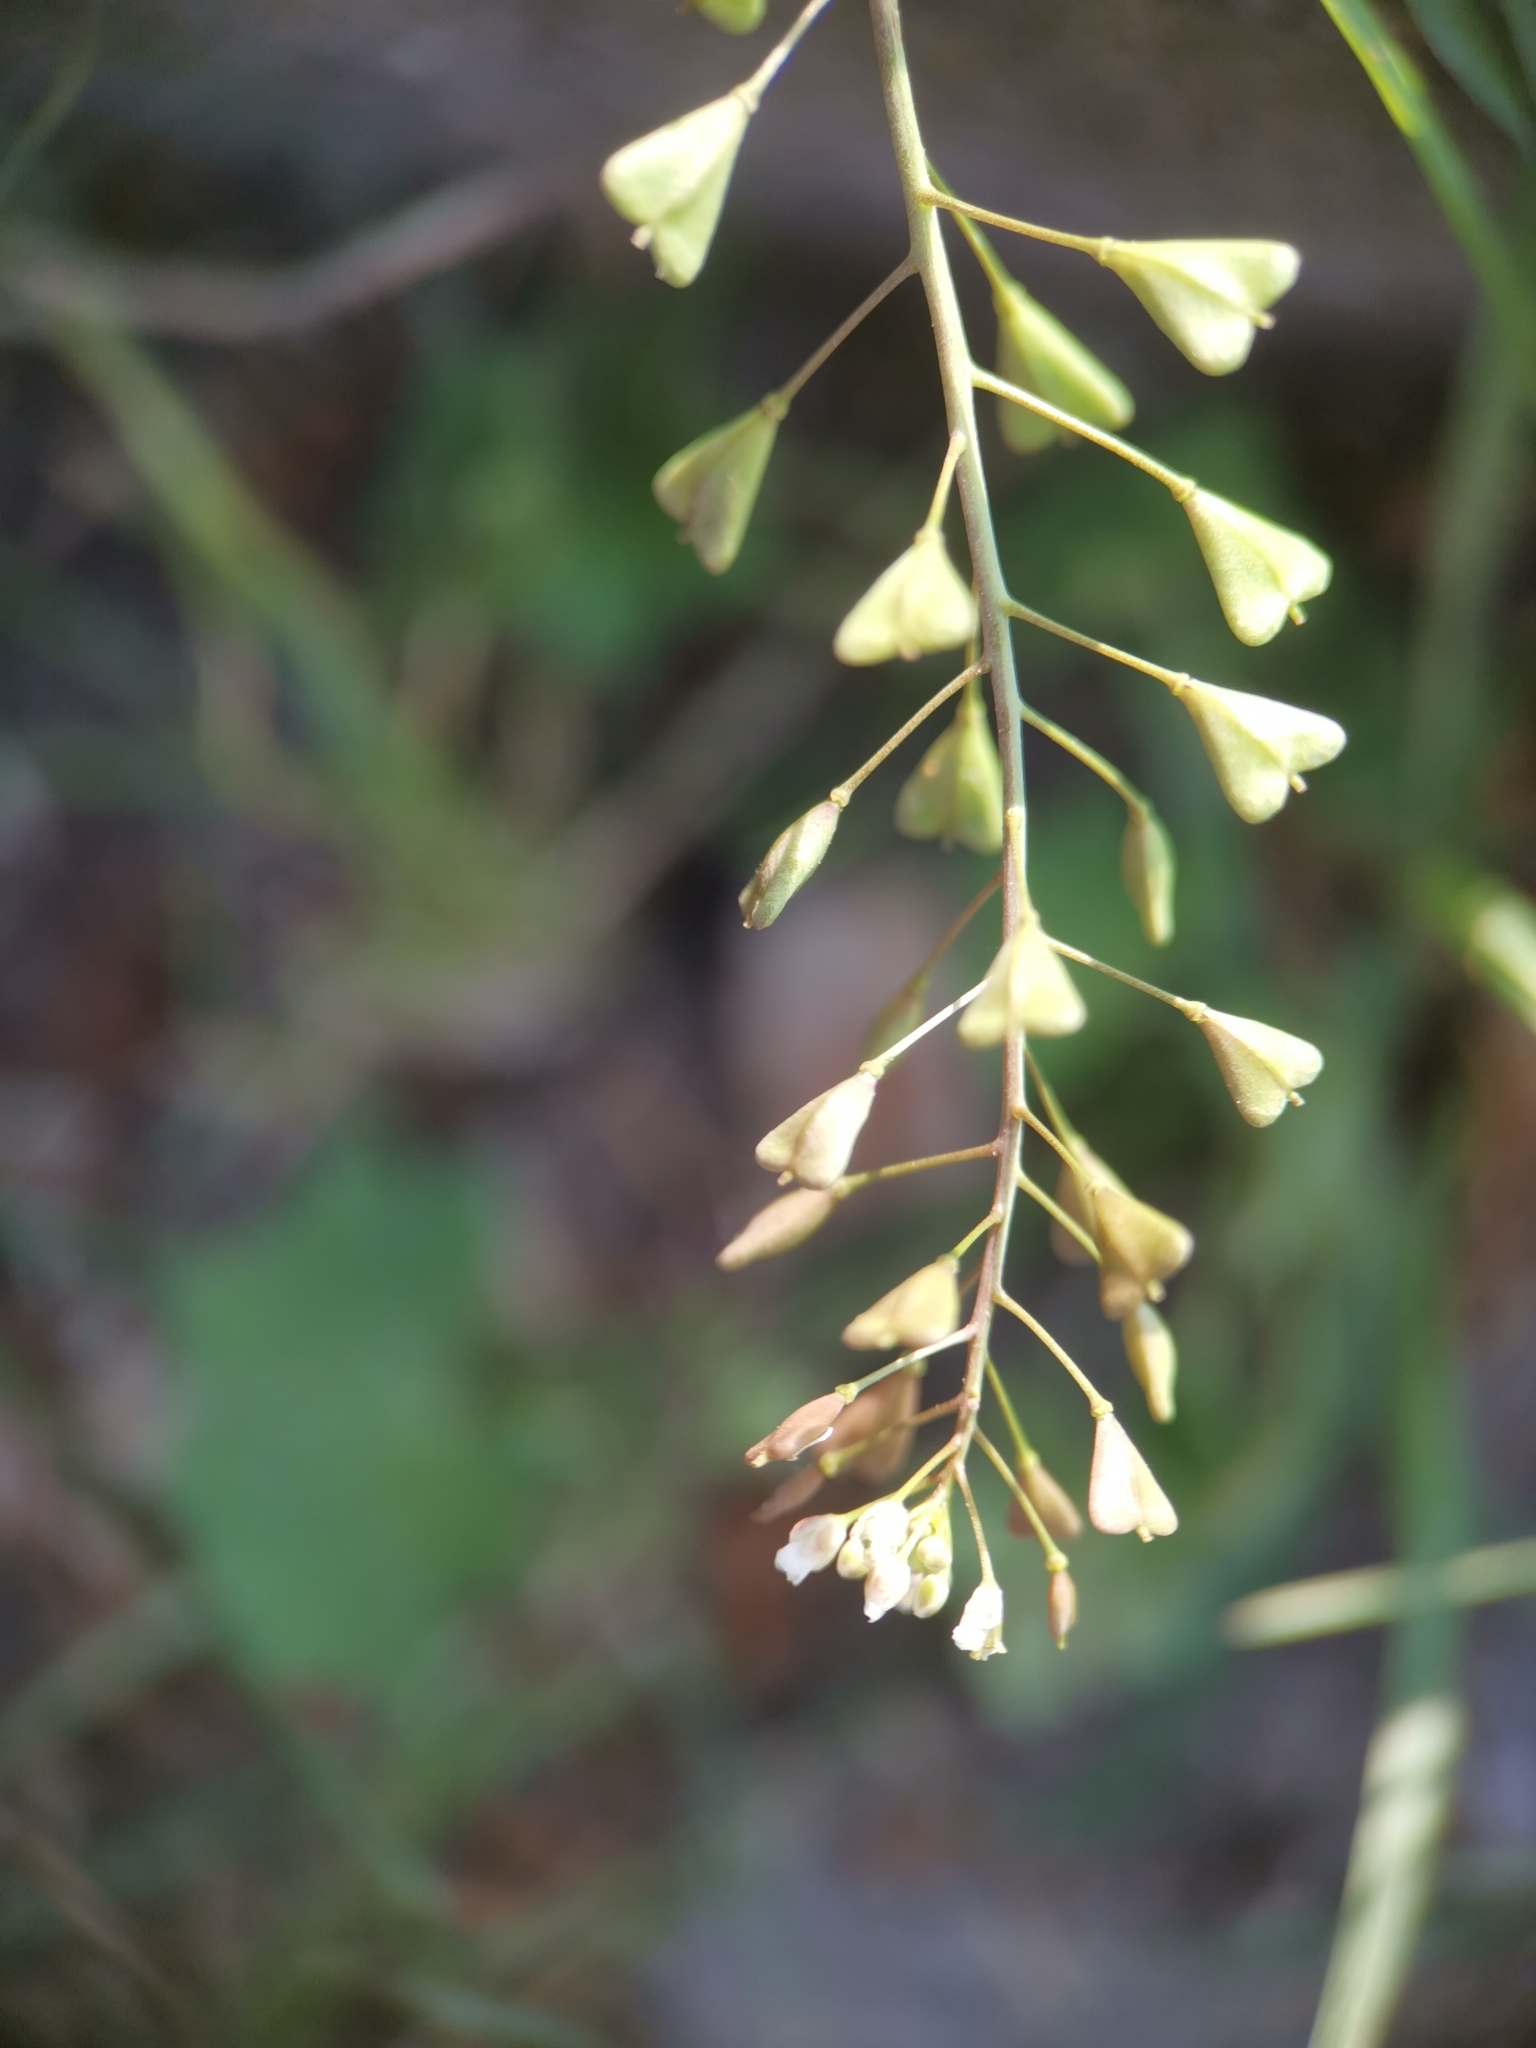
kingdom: Plantae
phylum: Tracheophyta
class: Magnoliopsida
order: Brassicales
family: Brassicaceae
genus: Capsella
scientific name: Capsella bursa-pastoris
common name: Shepherd's purse
